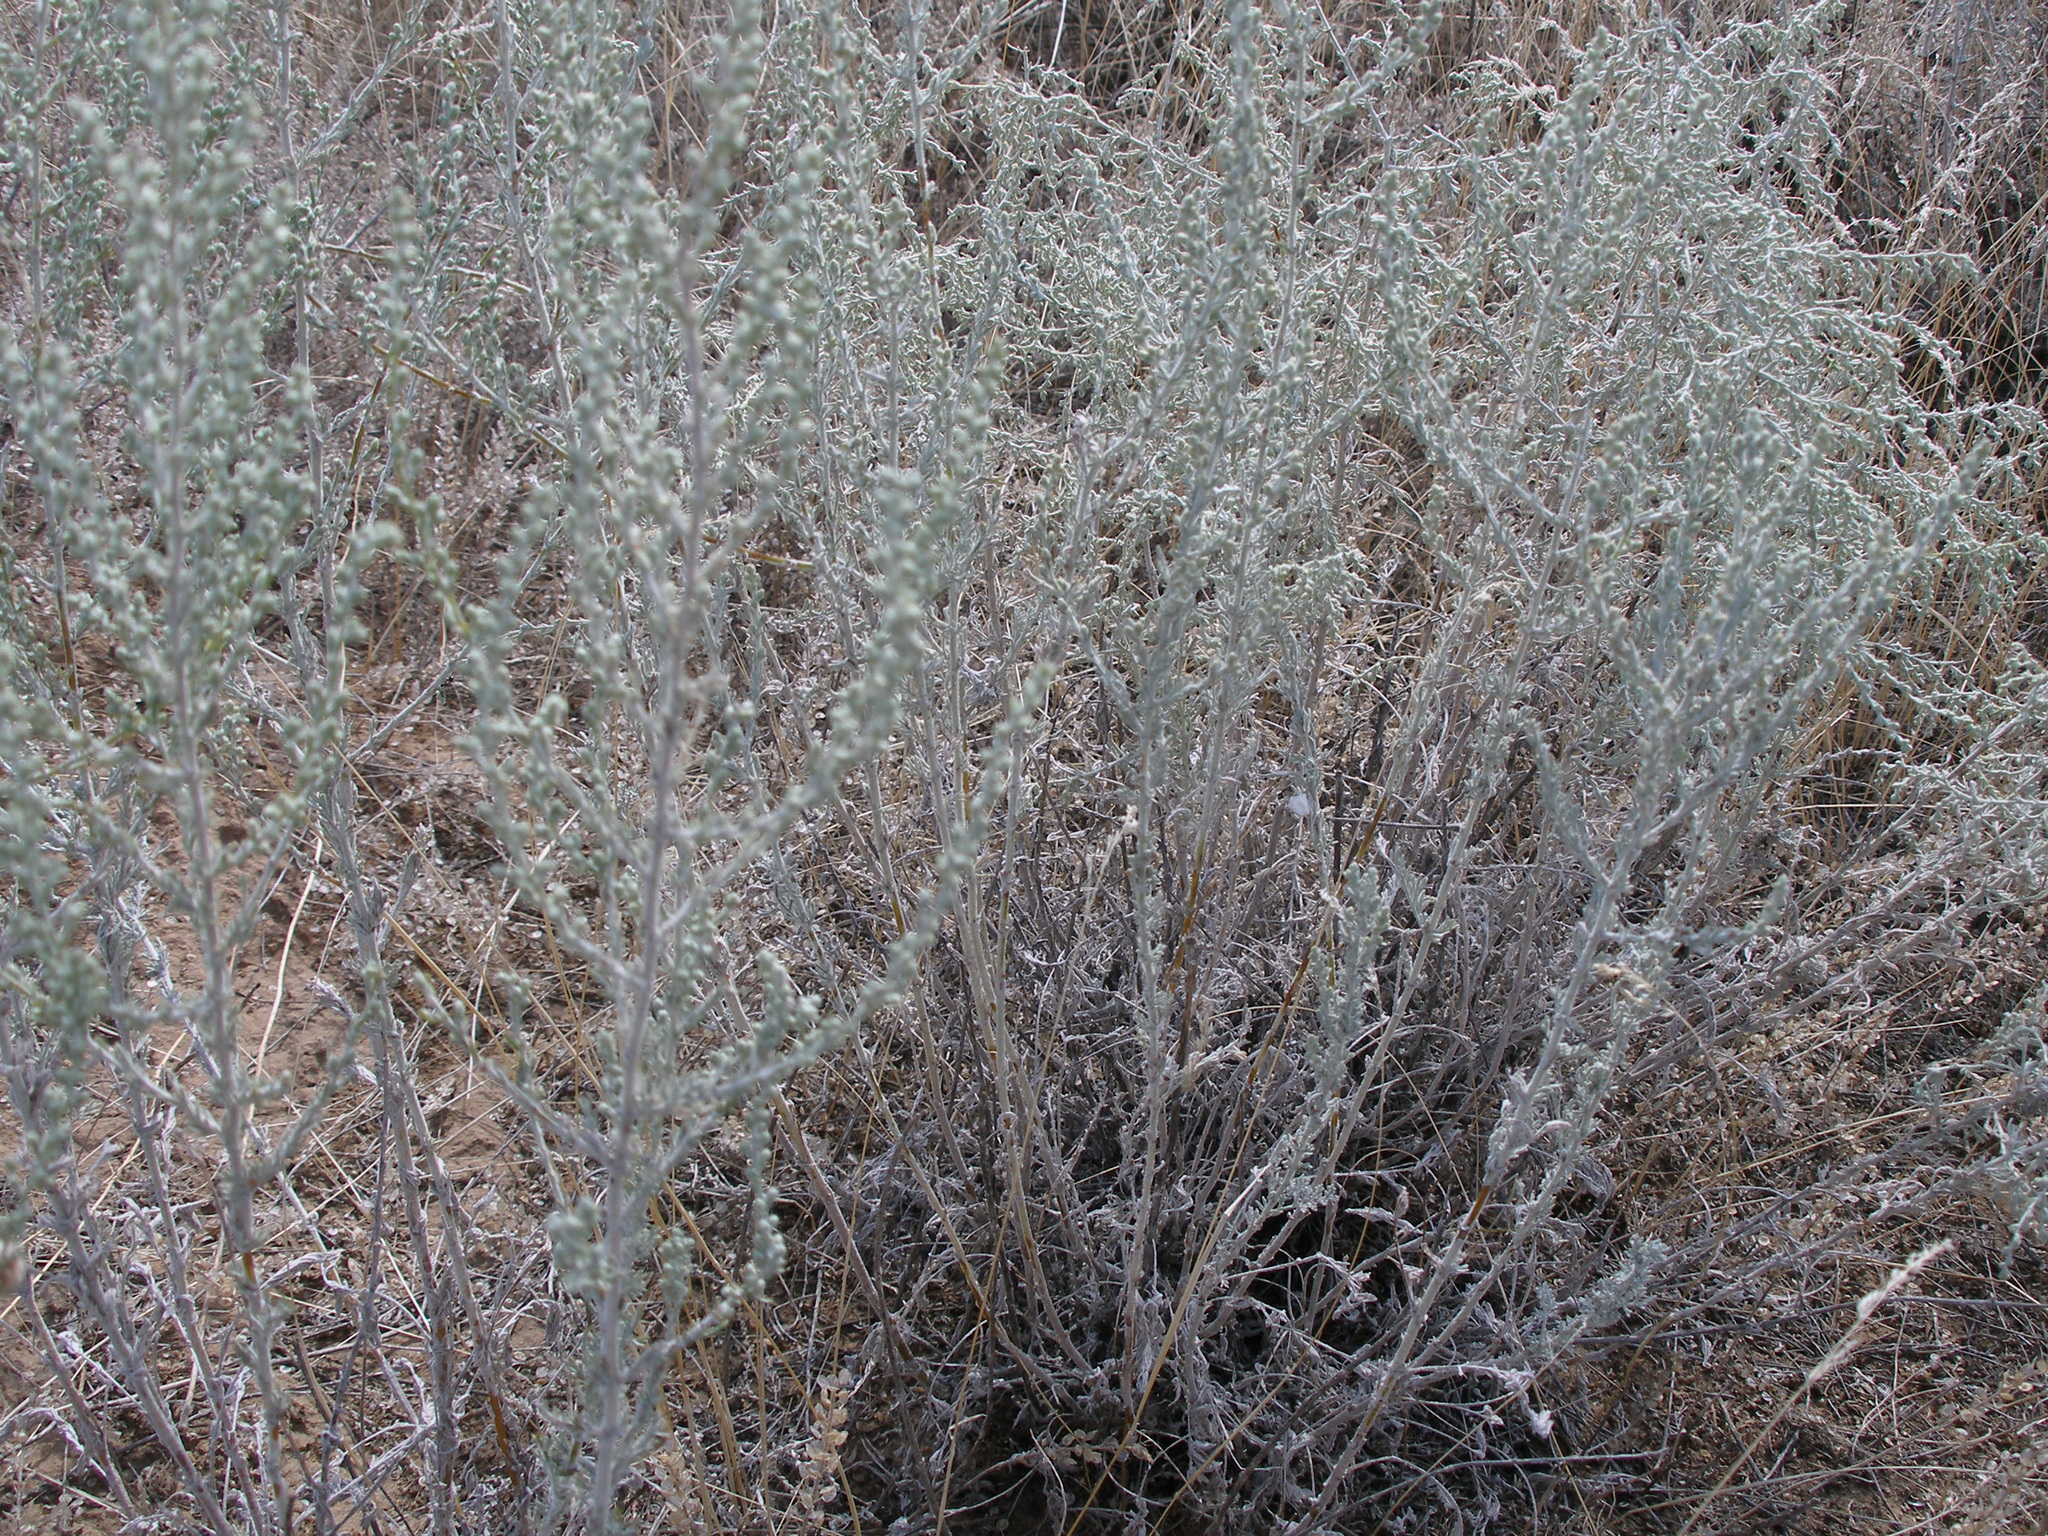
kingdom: Plantae
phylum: Tracheophyta
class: Magnoliopsida
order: Asterales
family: Asteraceae
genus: Artemisia
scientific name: Artemisia nitrosa
